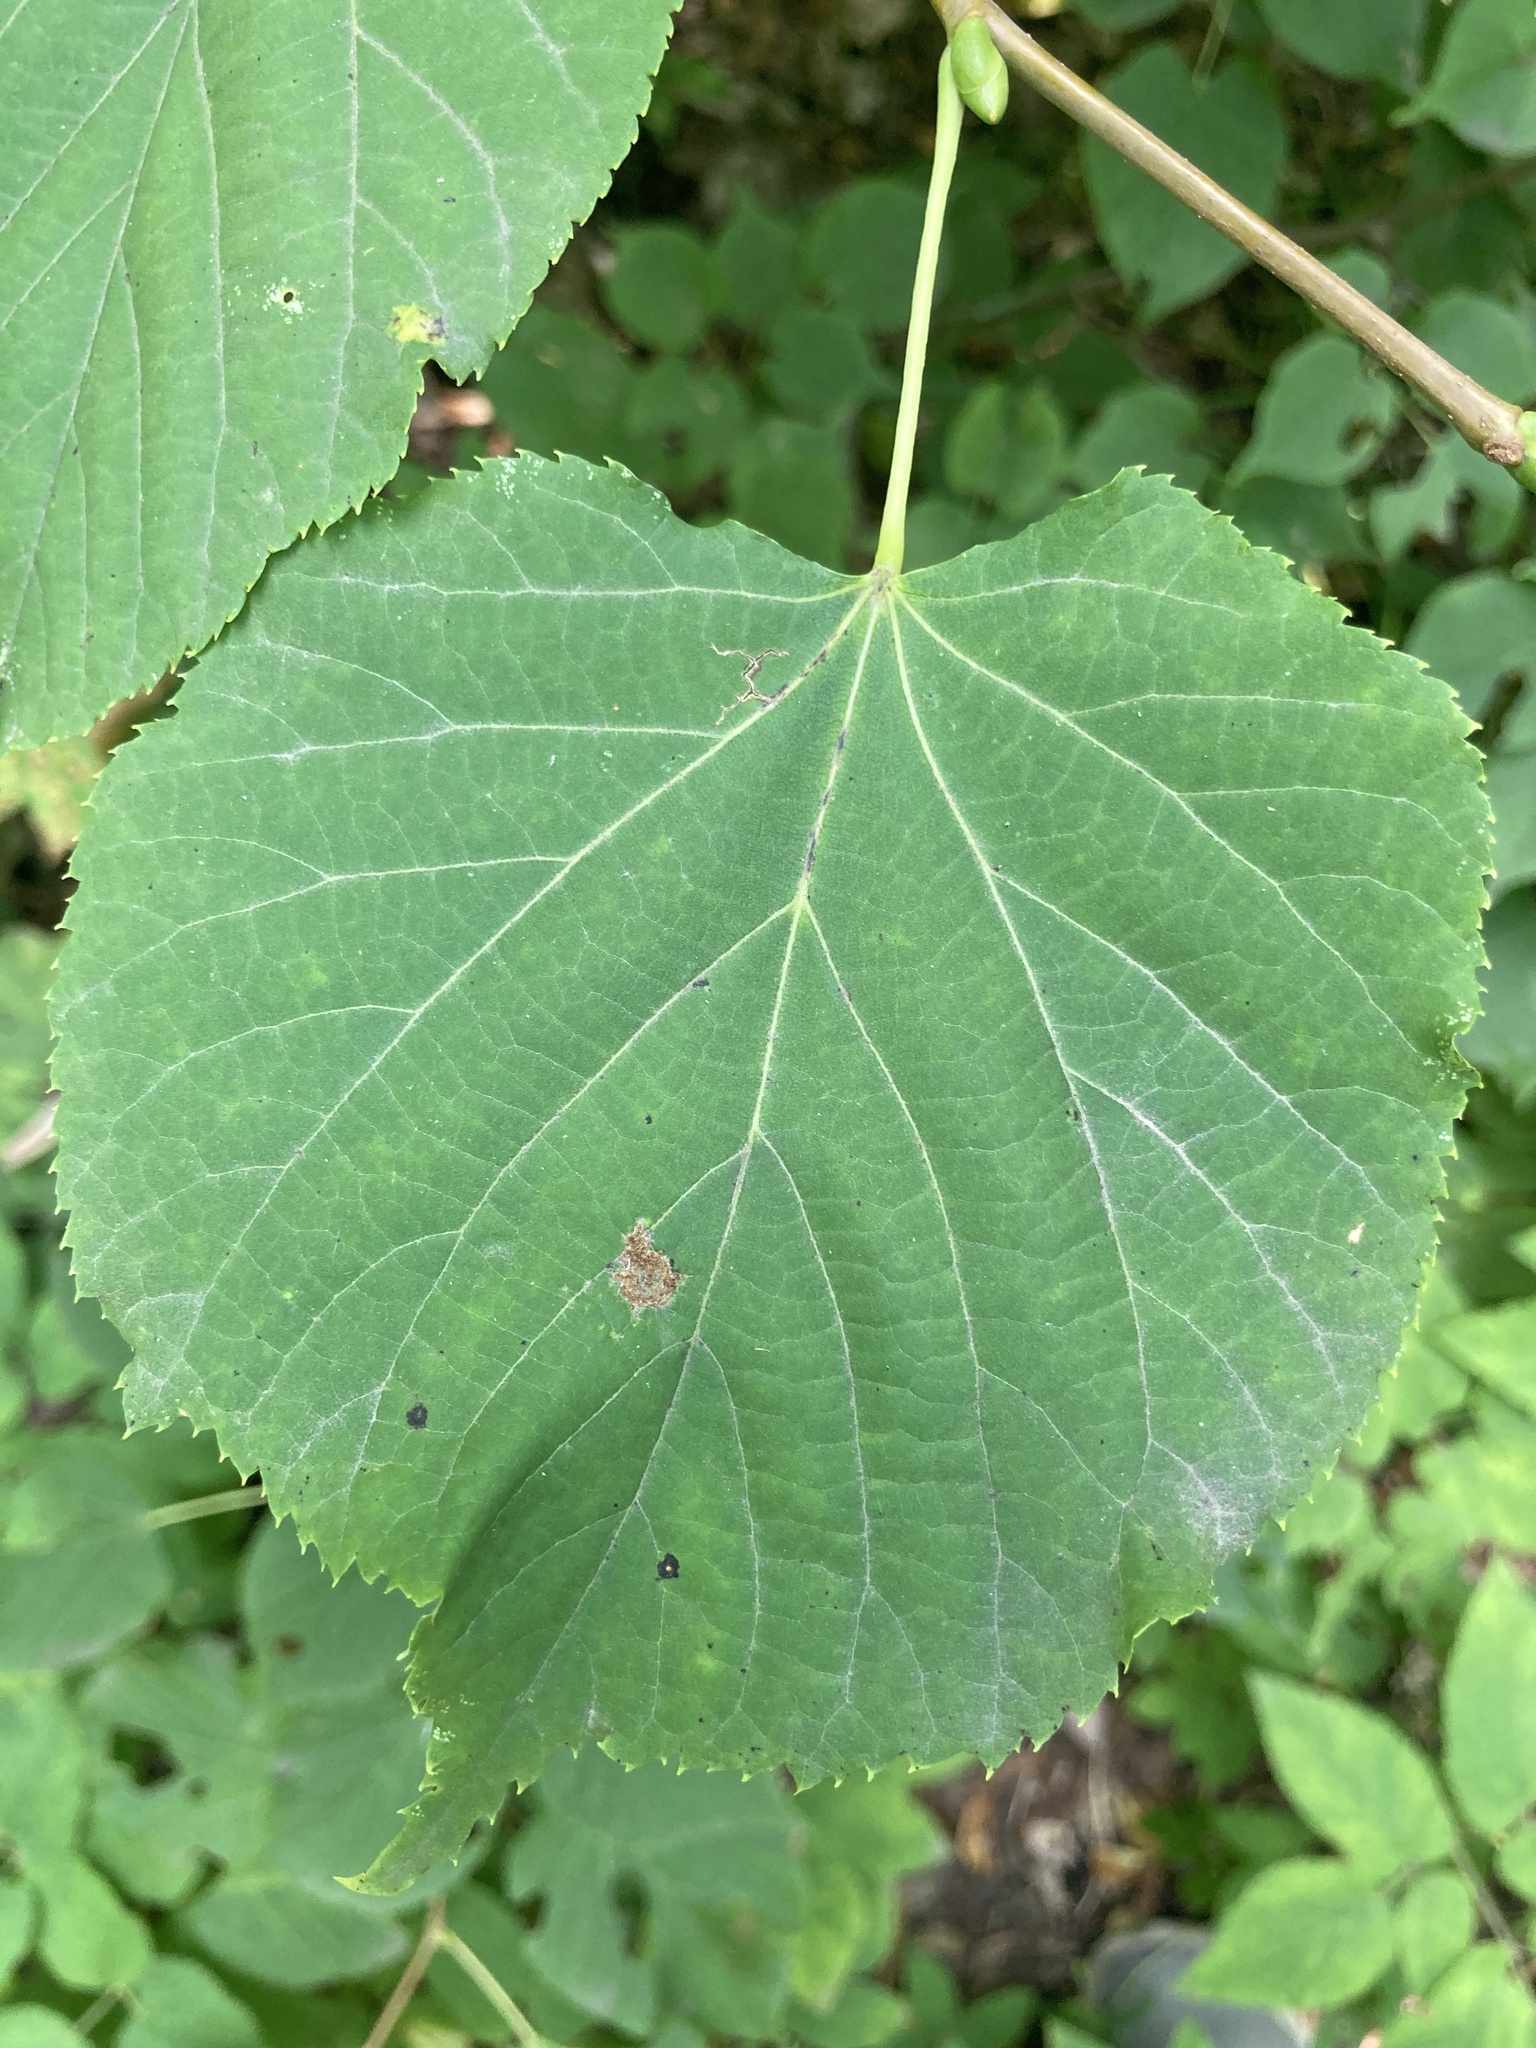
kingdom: Plantae
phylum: Tracheophyta
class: Magnoliopsida
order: Malvales
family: Malvaceae
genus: Tilia
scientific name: Tilia cordata
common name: Small-leaved lime
